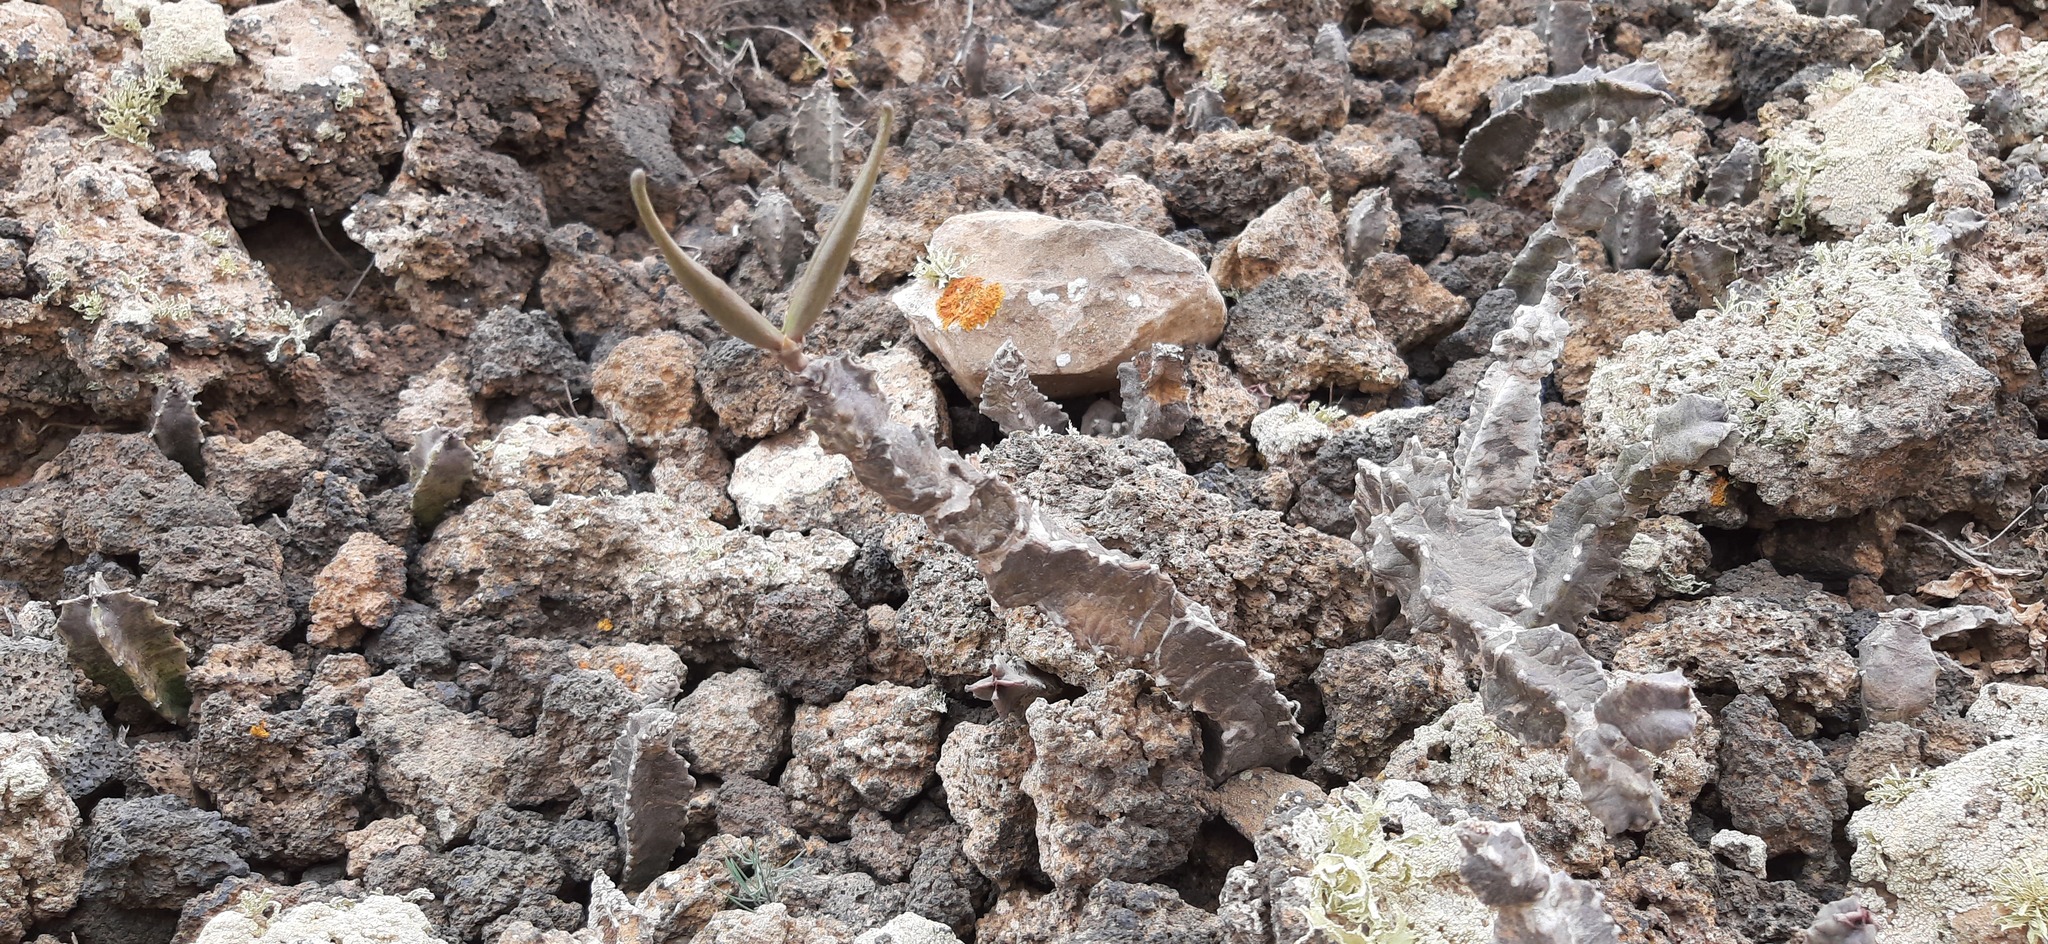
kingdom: Plantae
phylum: Tracheophyta
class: Magnoliopsida
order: Gentianales
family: Apocynaceae
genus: Ceropegia
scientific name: Ceropegia burchardii
